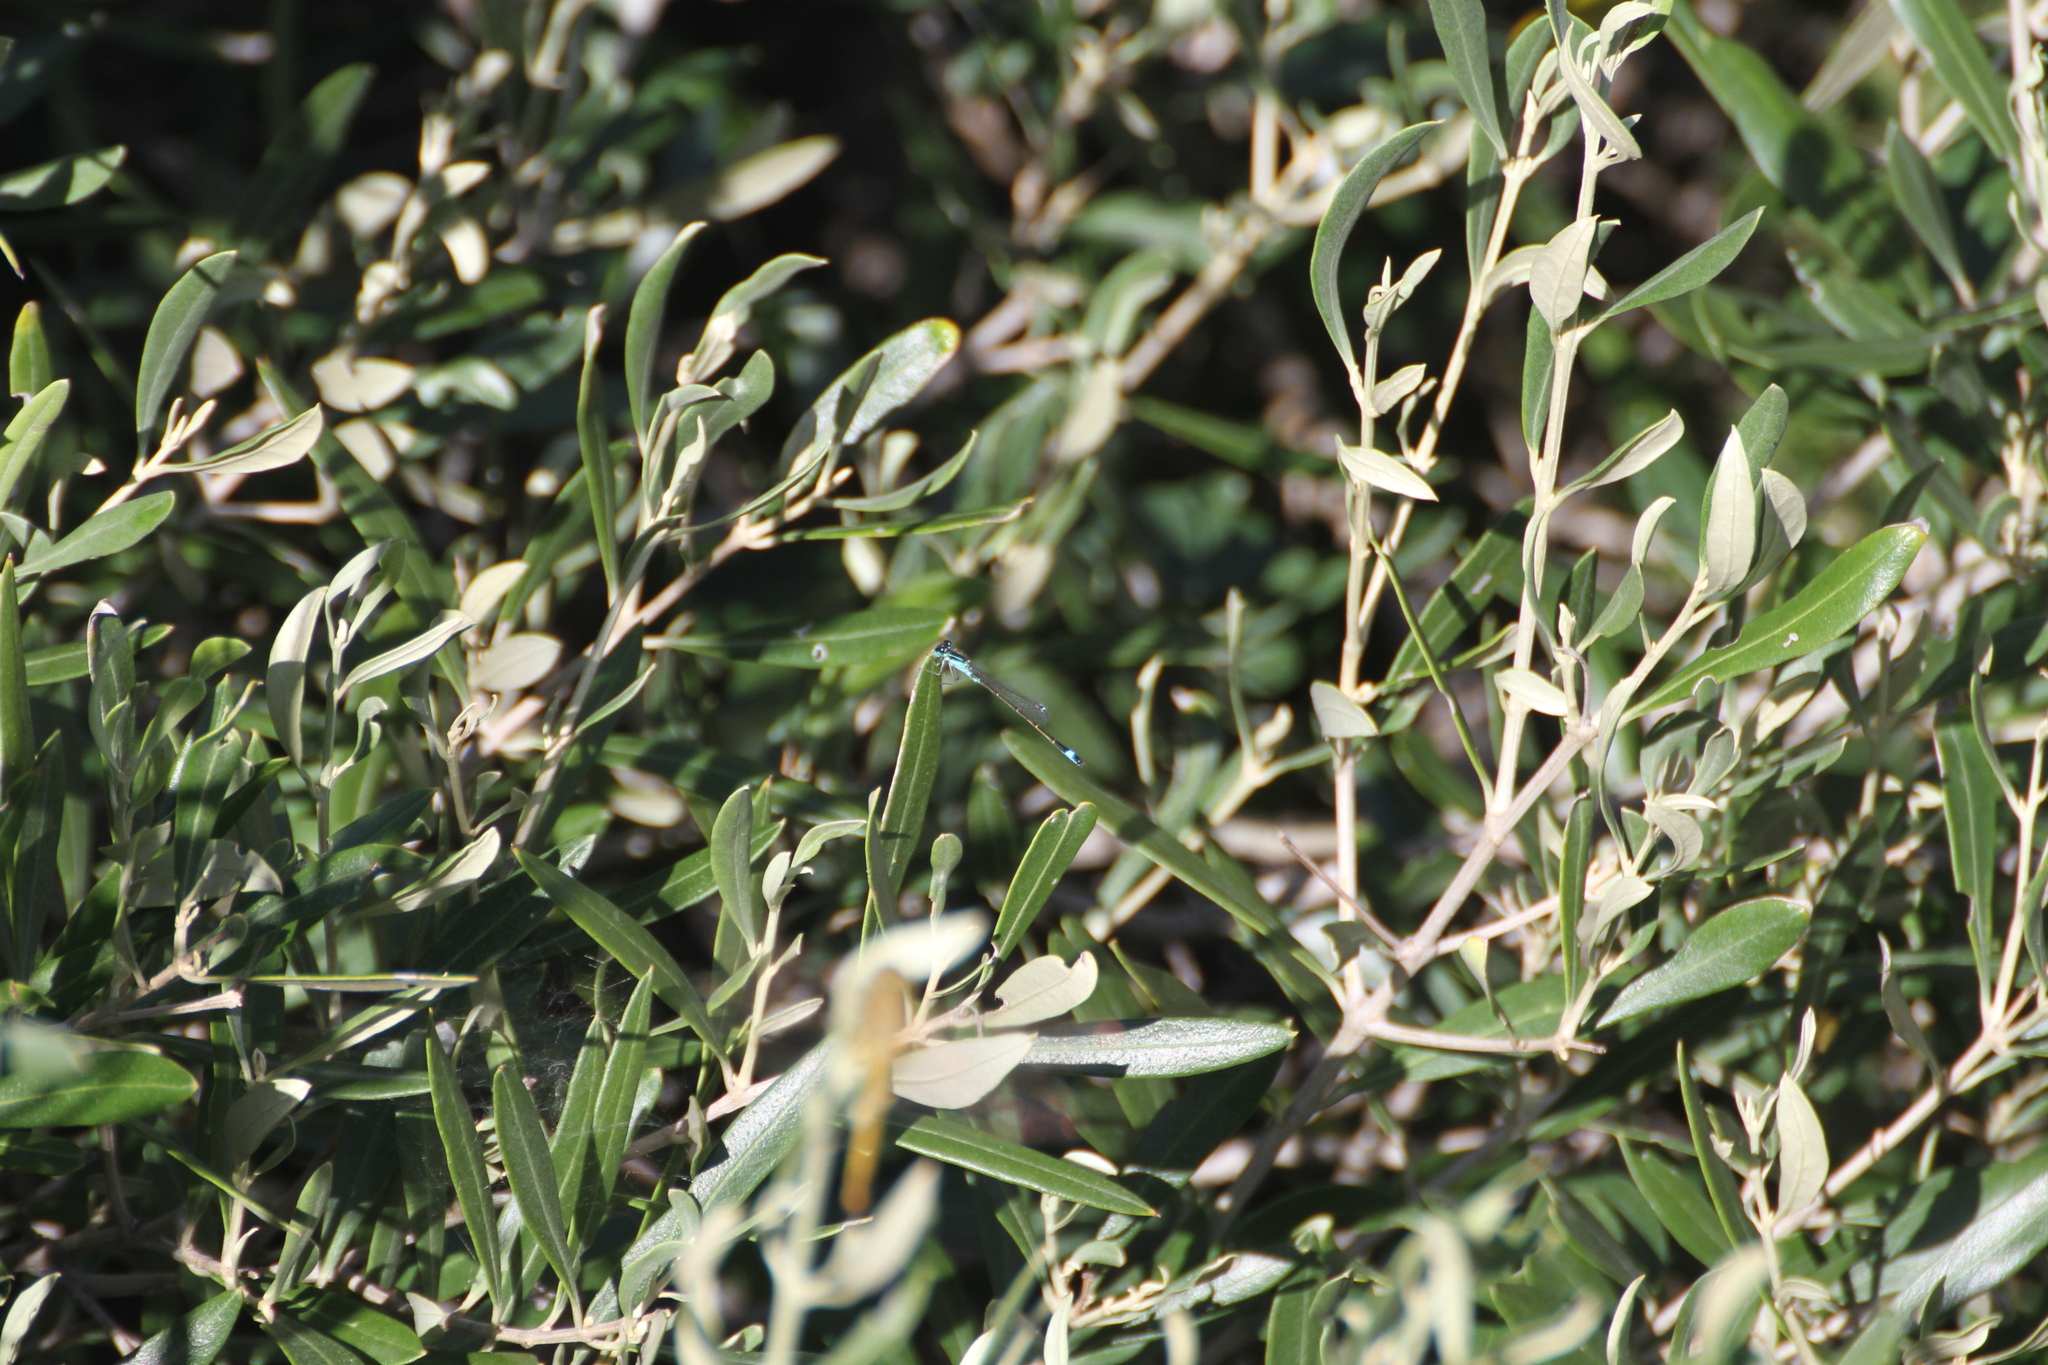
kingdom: Animalia
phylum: Arthropoda
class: Insecta
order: Odonata
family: Coenagrionidae
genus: Ischnura
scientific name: Ischnura elegans
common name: Blue-tailed damselfly
